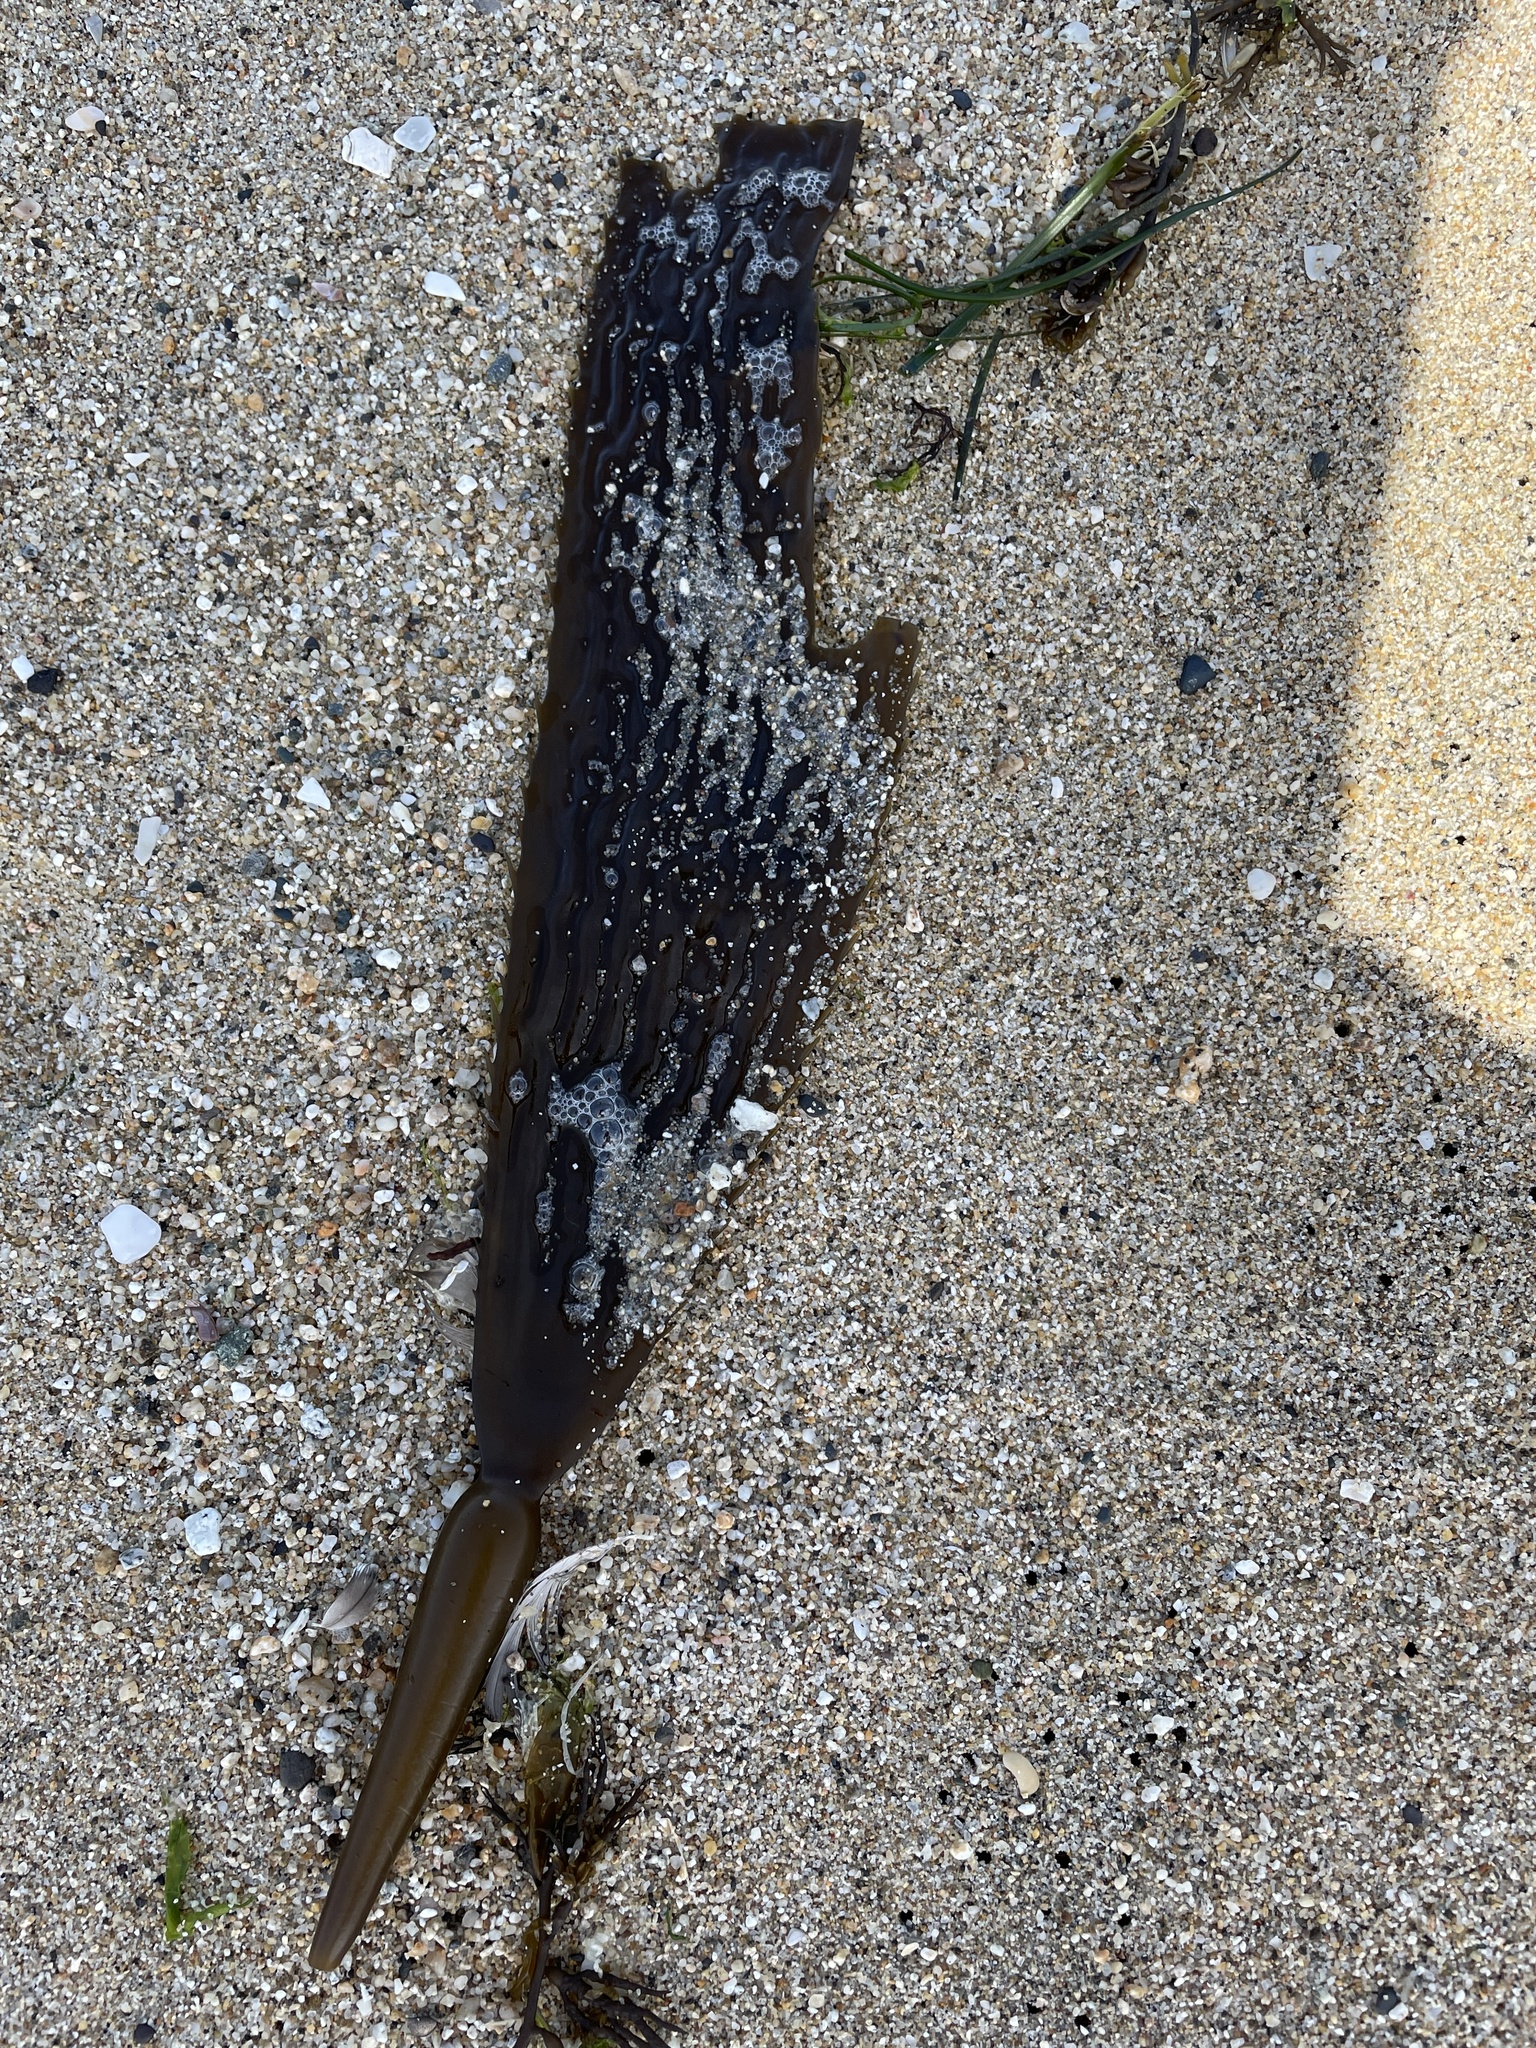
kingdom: Chromista
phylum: Ochrophyta
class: Phaeophyceae
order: Laminariales
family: Laminariaceae
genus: Macrocystis
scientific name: Macrocystis pyrifera
